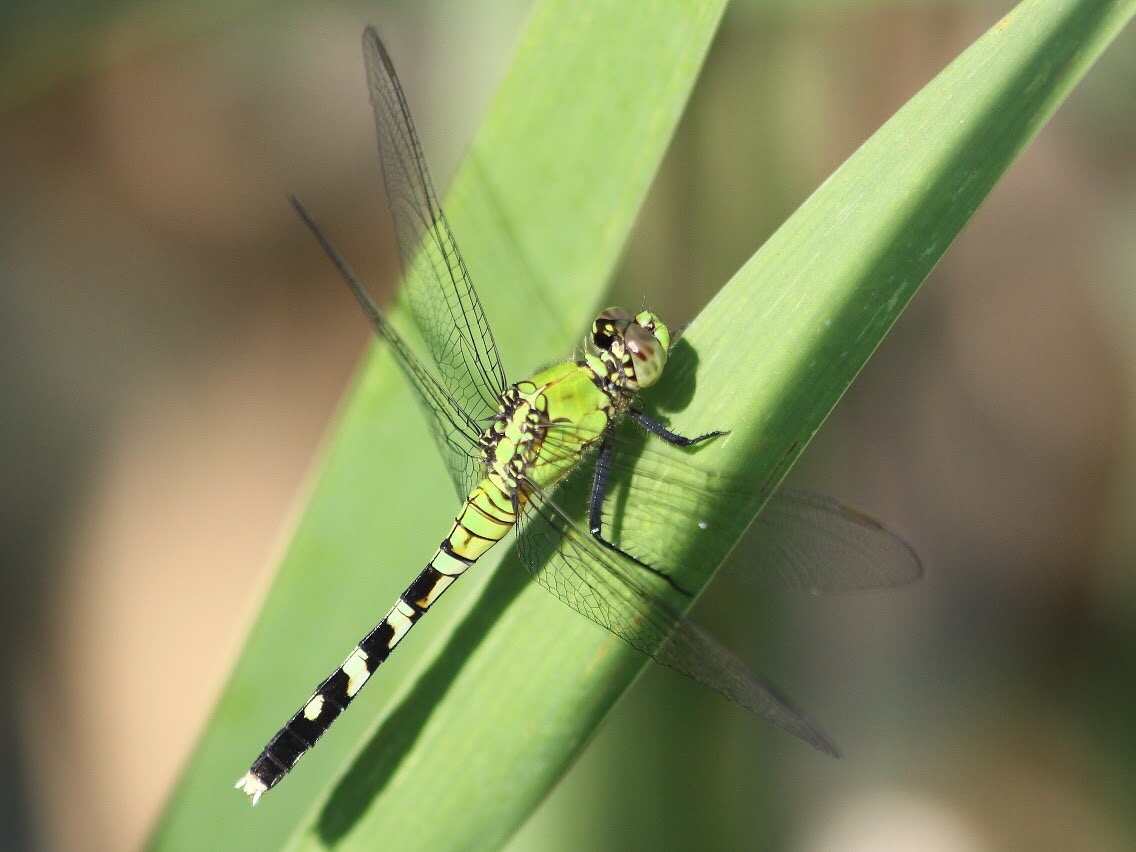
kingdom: Animalia
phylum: Arthropoda
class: Insecta
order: Odonata
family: Libellulidae
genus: Erythemis
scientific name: Erythemis simplicicollis
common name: Eastern pondhawk
